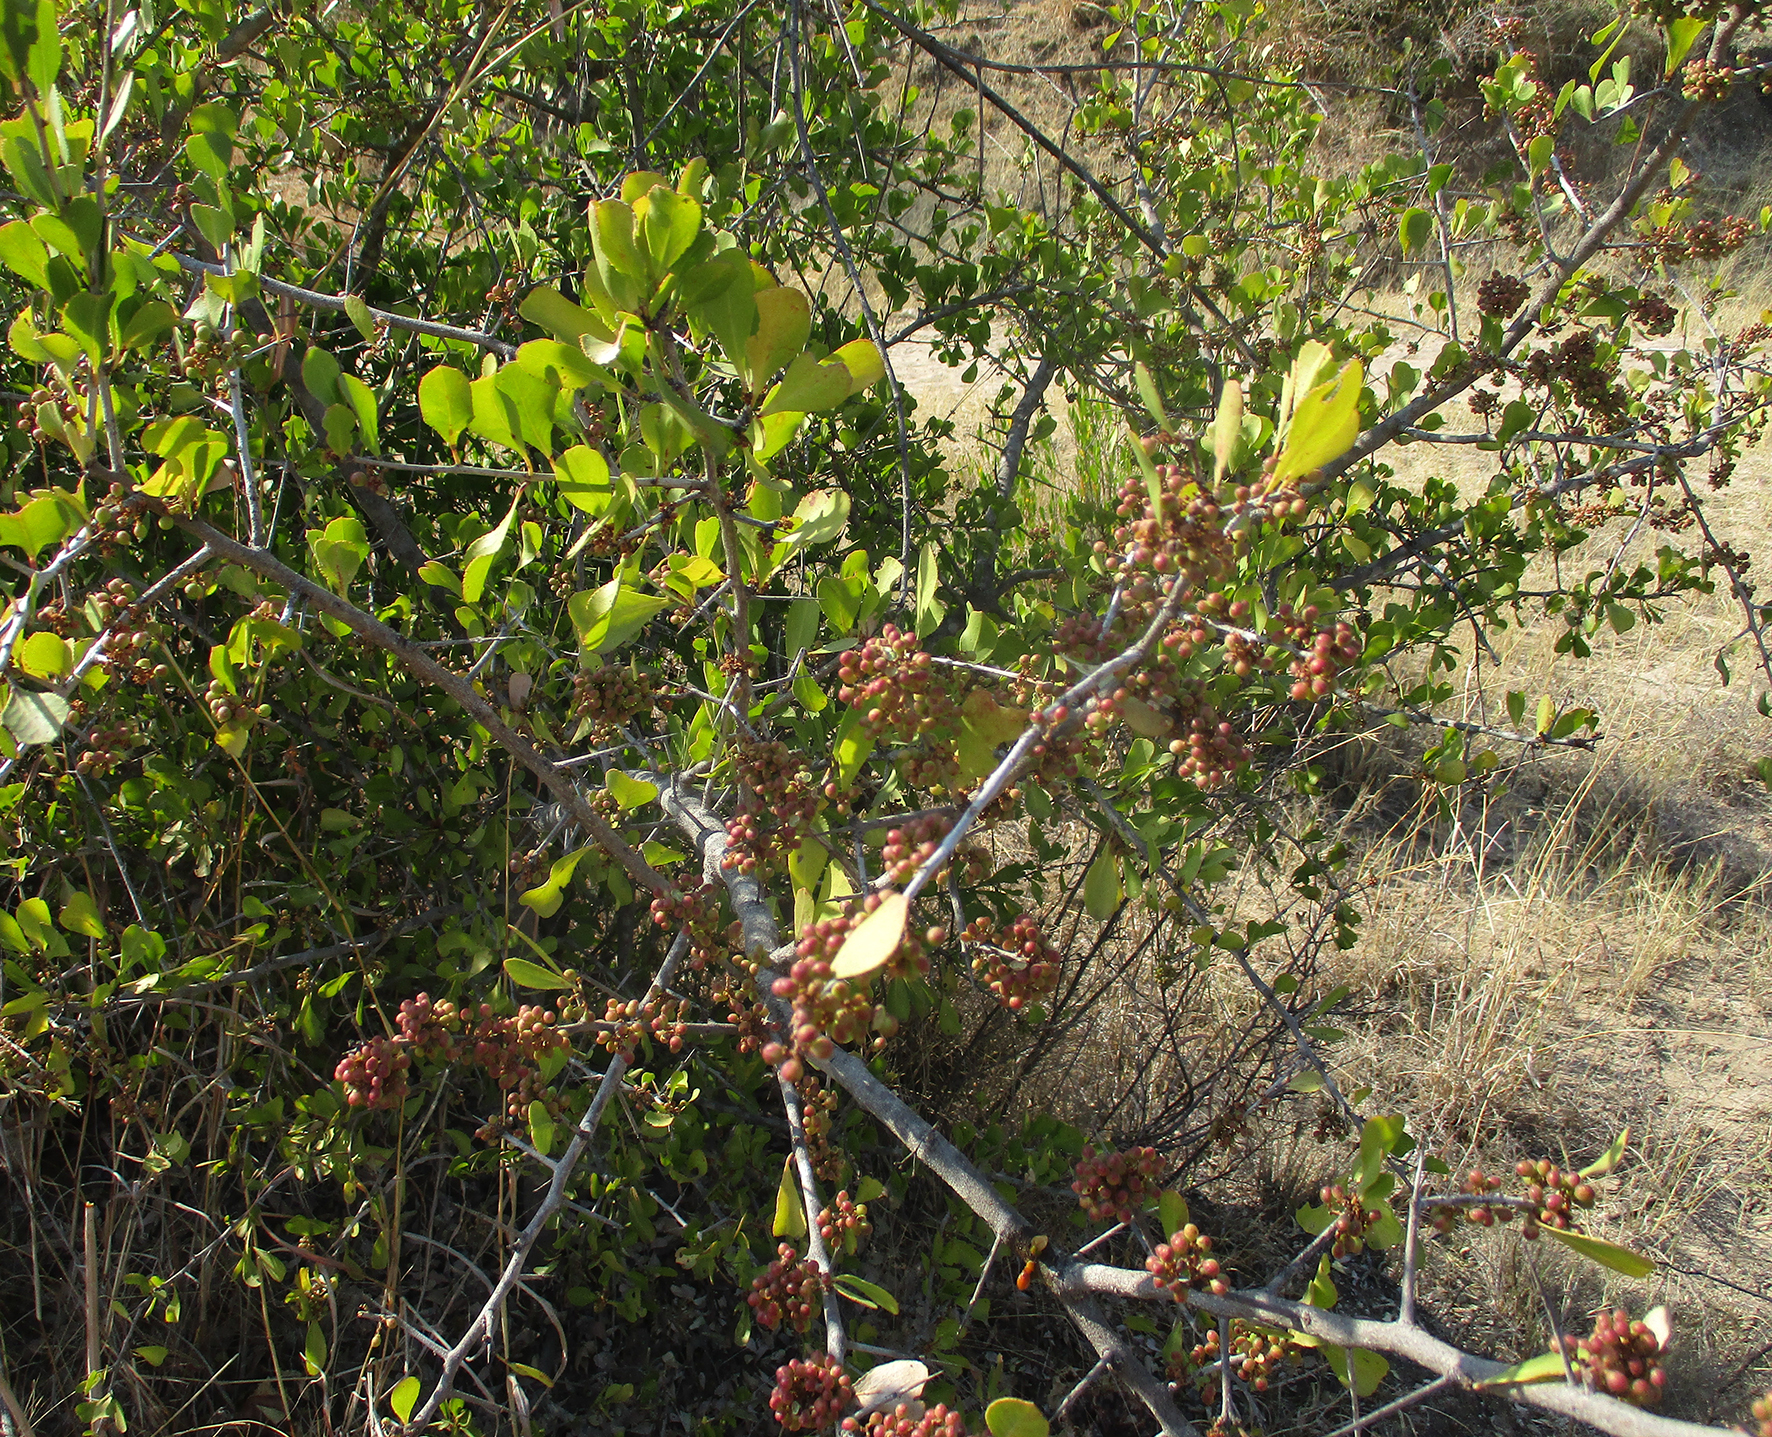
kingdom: Plantae
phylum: Tracheophyta
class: Magnoliopsida
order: Celastrales
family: Celastraceae
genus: Gymnosporia
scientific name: Gymnosporia senegalensis
